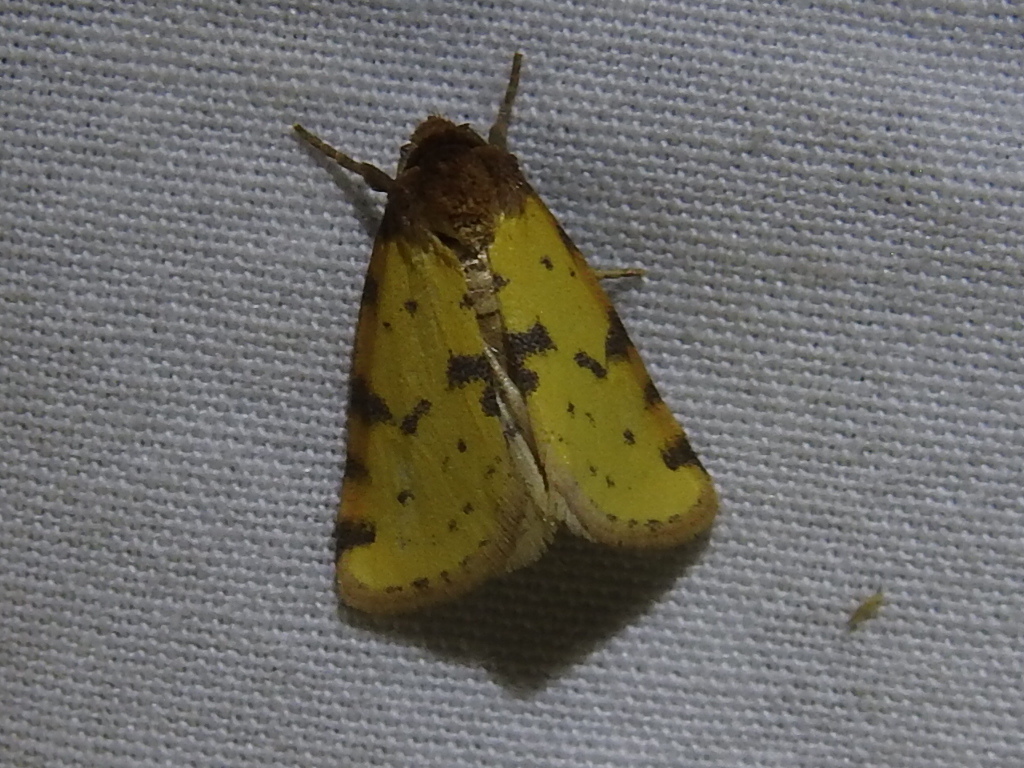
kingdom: Animalia
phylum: Arthropoda
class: Insecta
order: Lepidoptera
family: Noctuidae
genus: Azenia
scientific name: Azenia obtusa
